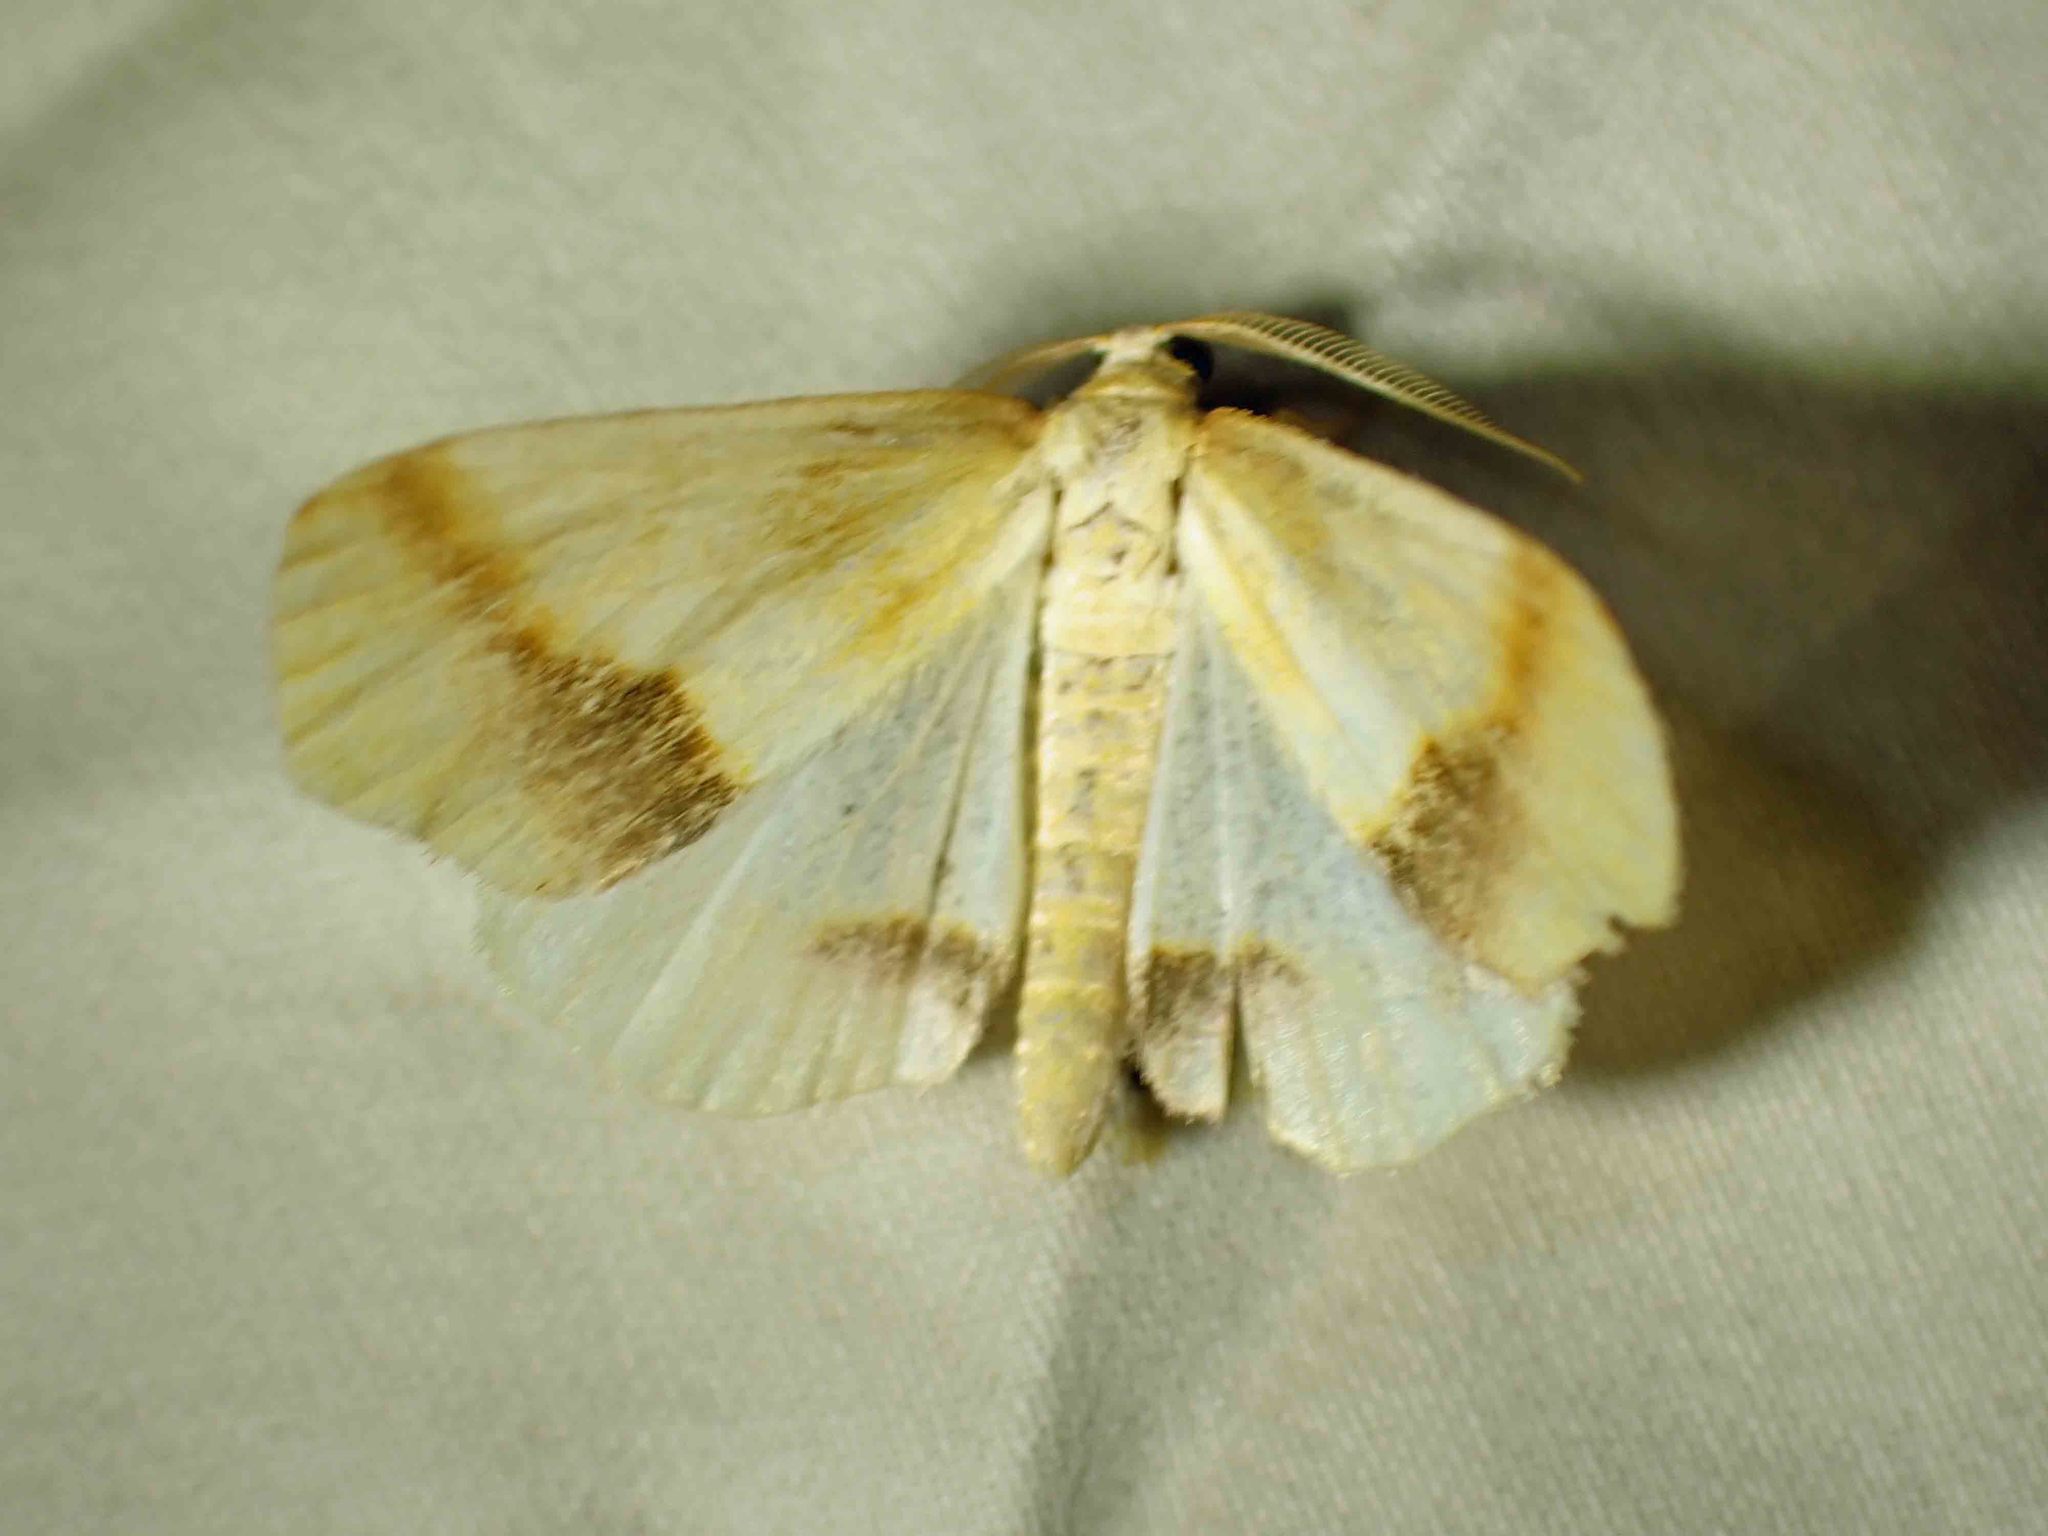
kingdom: Animalia
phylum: Arthropoda
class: Insecta
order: Lepidoptera
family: Geometridae
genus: Plagodis
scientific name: Plagodis serinaria
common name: Lemon plagodis
